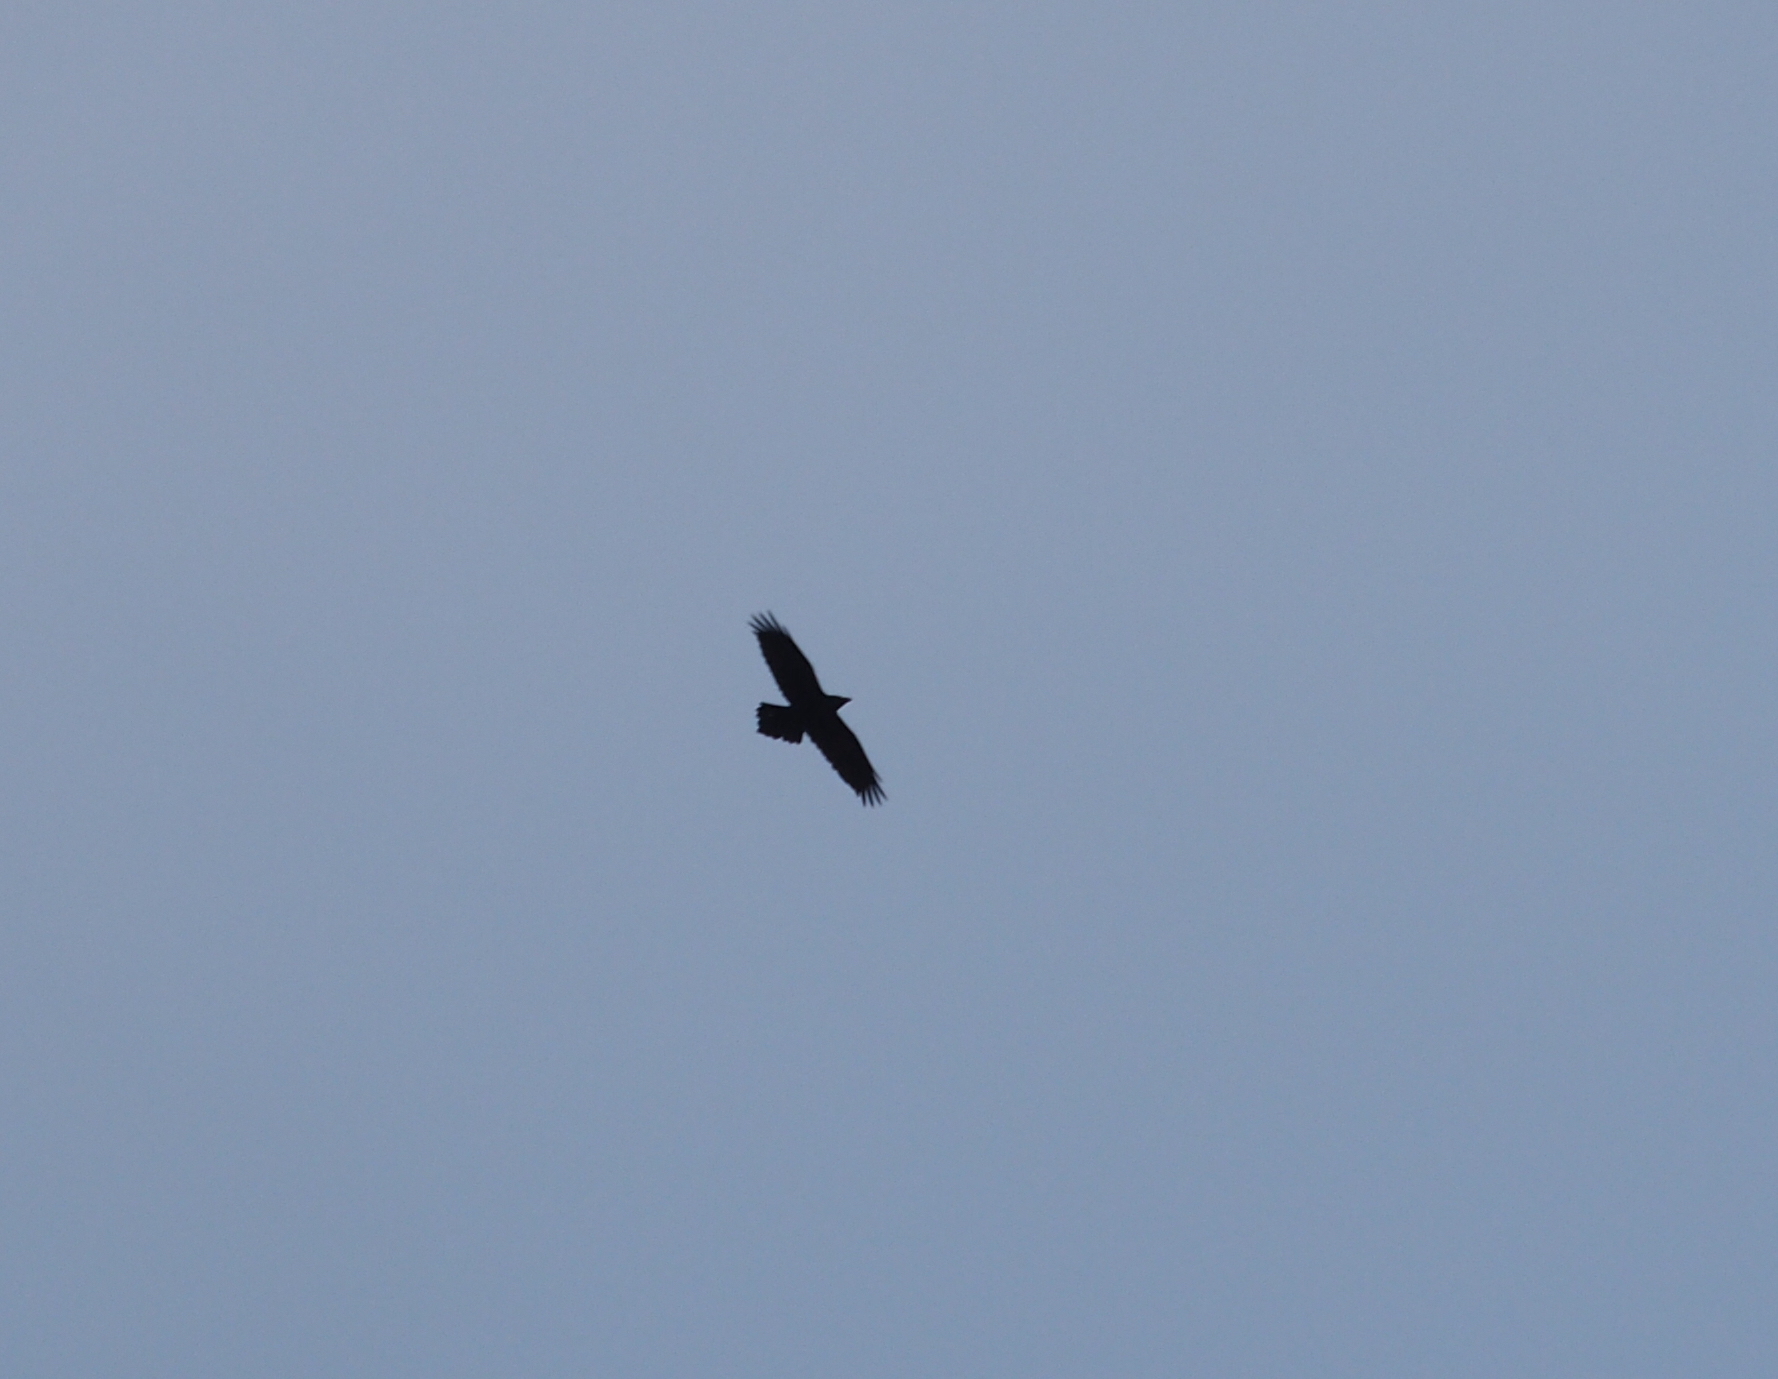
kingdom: Animalia
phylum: Chordata
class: Aves
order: Passeriformes
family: Corvidae
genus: Corvus
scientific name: Corvus corax
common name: Common raven
